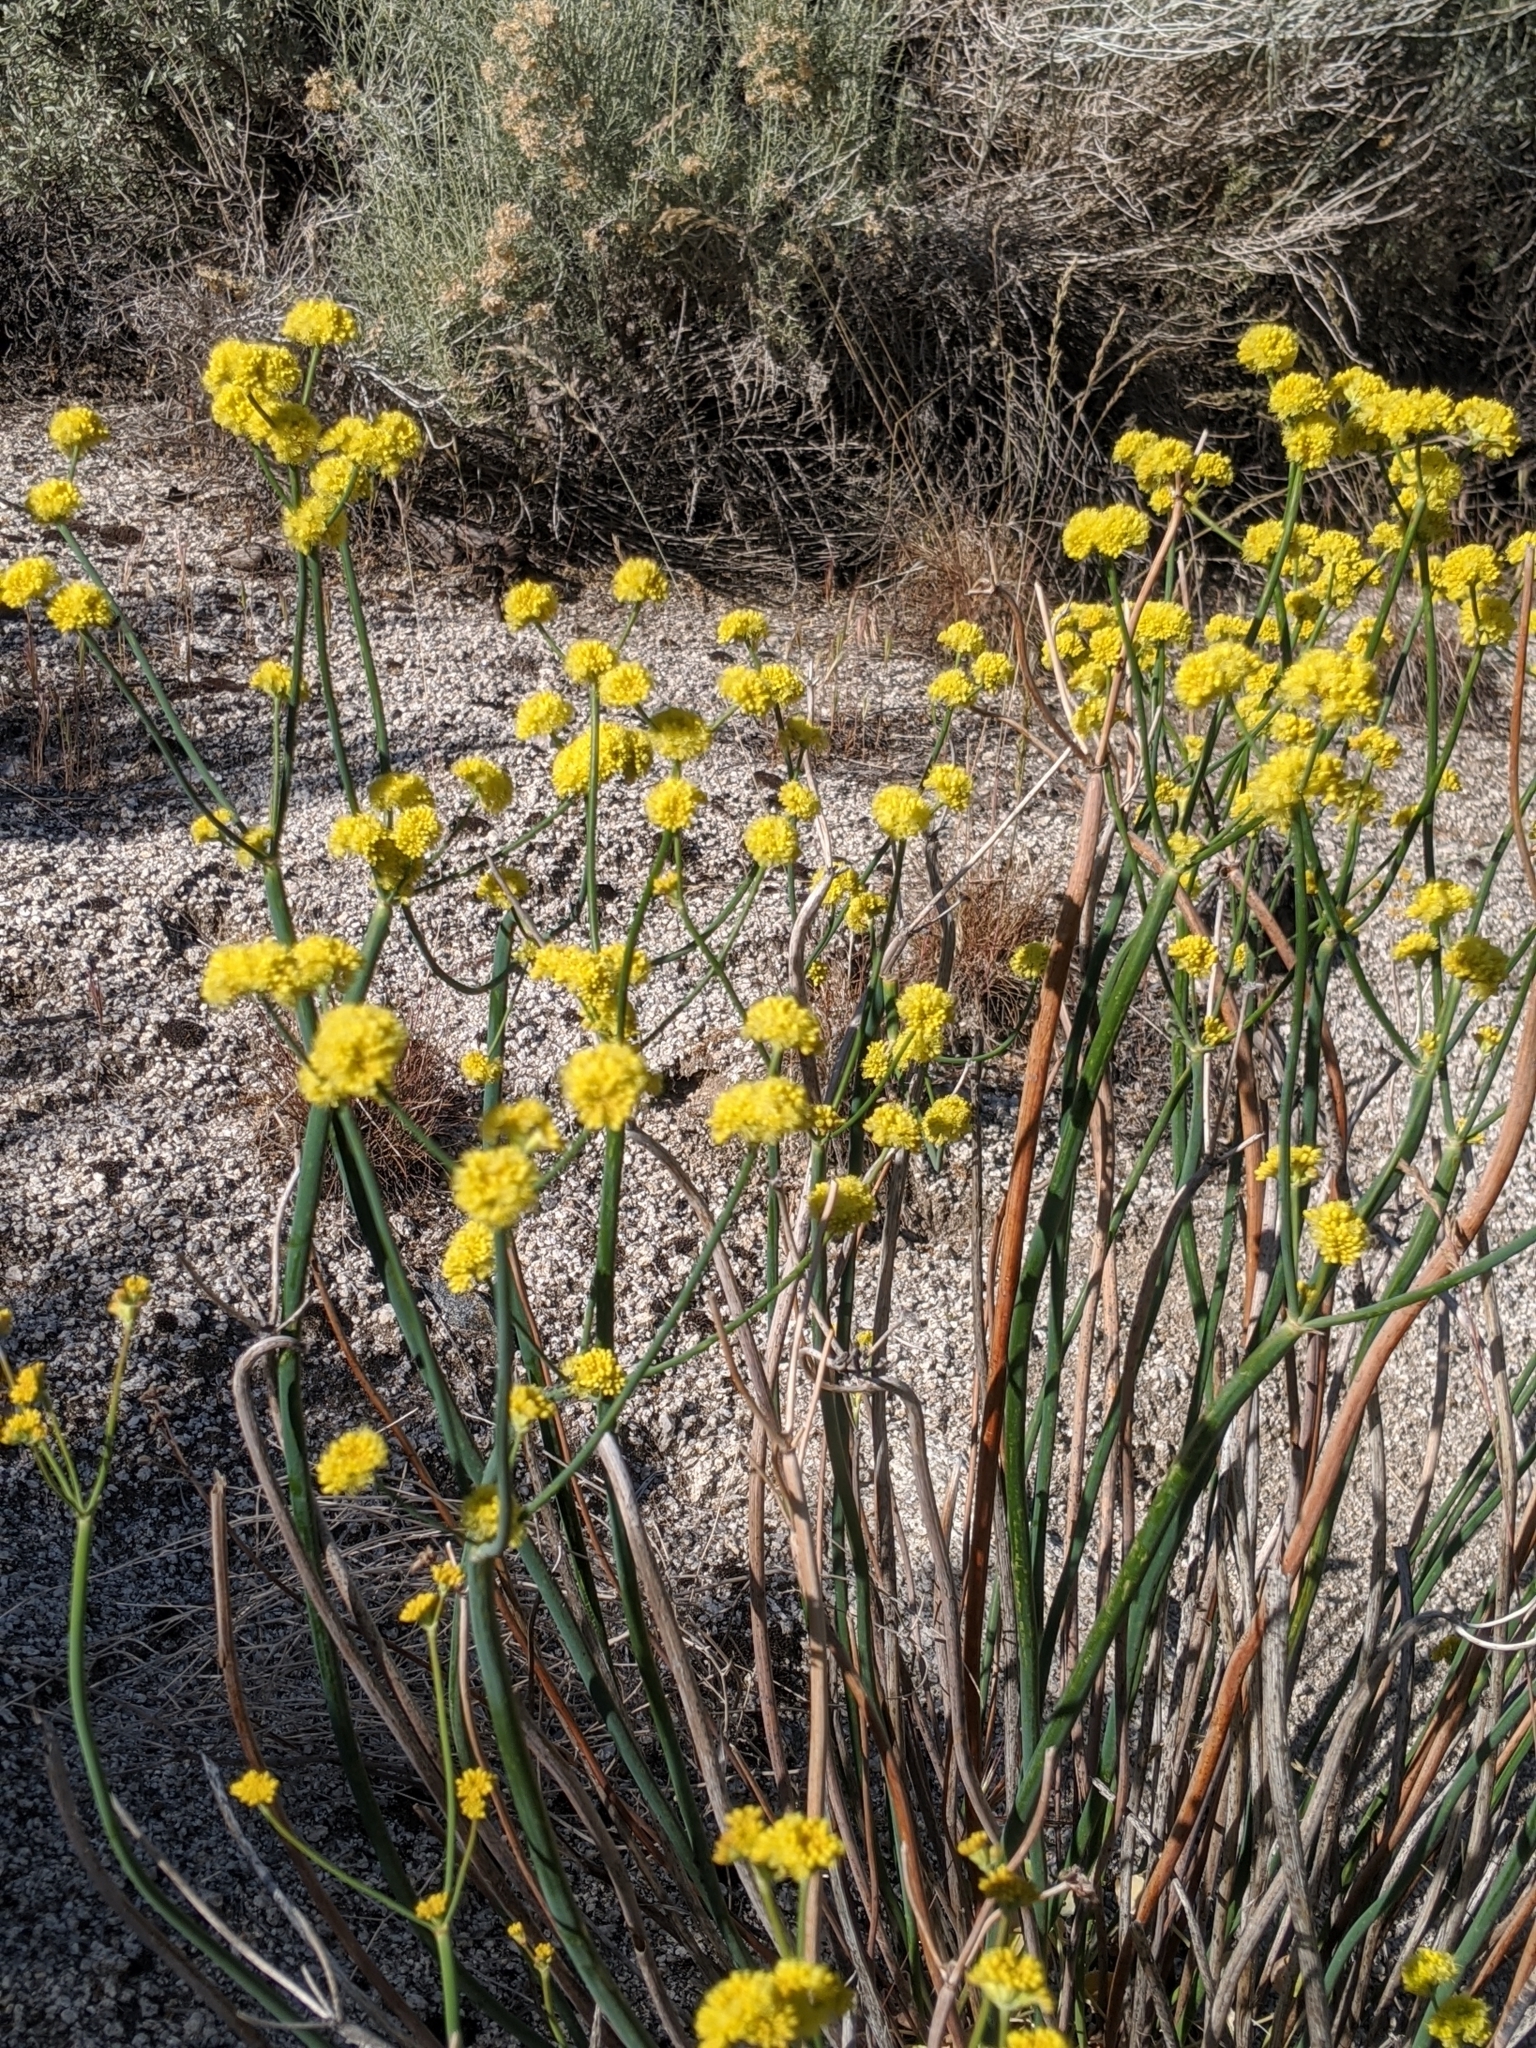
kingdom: Plantae
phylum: Tracheophyta
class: Magnoliopsida
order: Caryophyllales
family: Polygonaceae
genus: Eriogonum
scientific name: Eriogonum nudum
